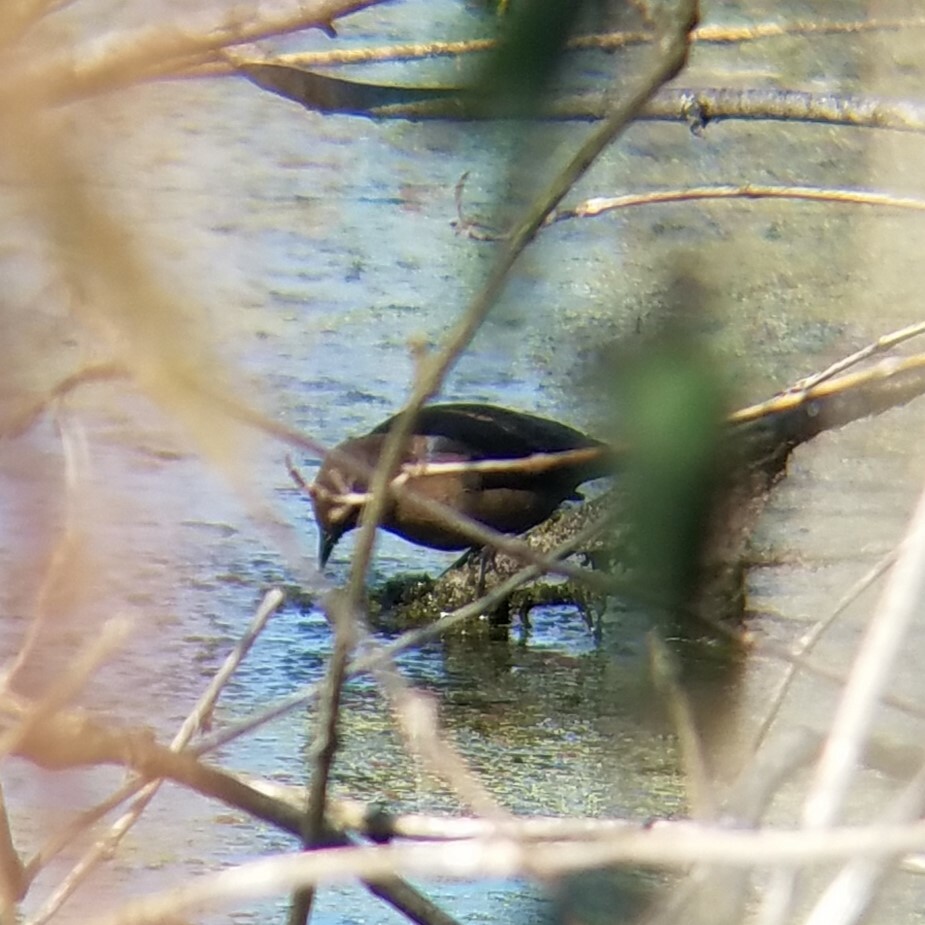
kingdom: Animalia
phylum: Chordata
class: Aves
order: Passeriformes
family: Icteridae
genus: Euphagus
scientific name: Euphagus carolinus
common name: Rusty blackbird
